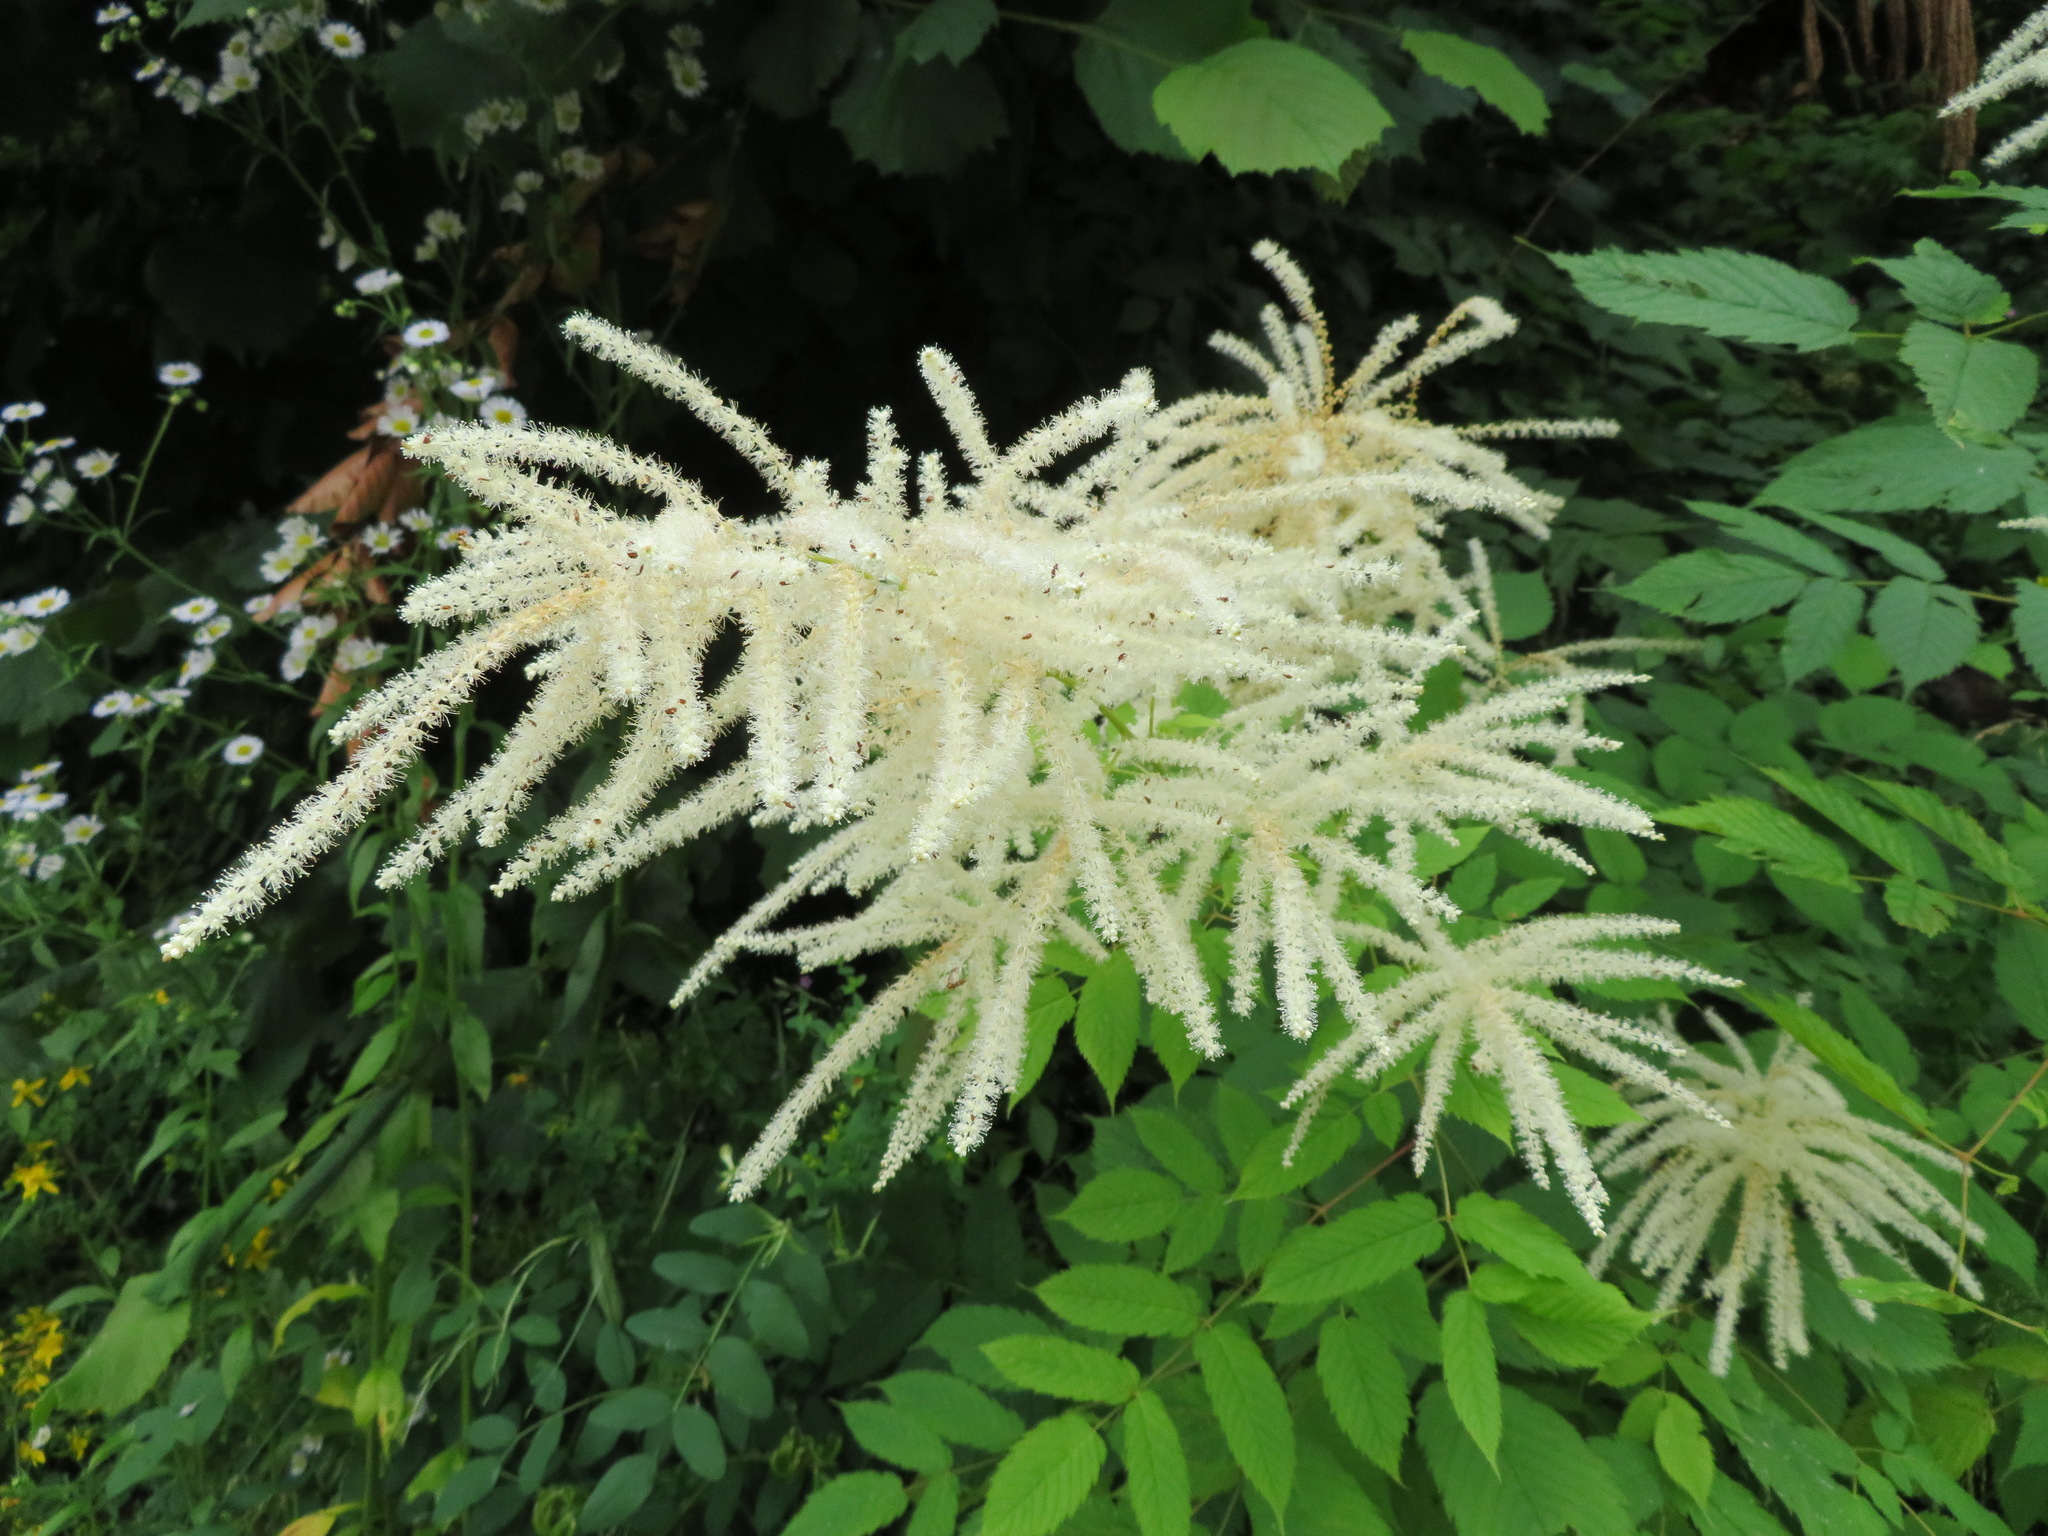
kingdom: Plantae
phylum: Tracheophyta
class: Magnoliopsida
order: Rosales
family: Rosaceae
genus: Aruncus
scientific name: Aruncus dioicus
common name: Buck's-beard
